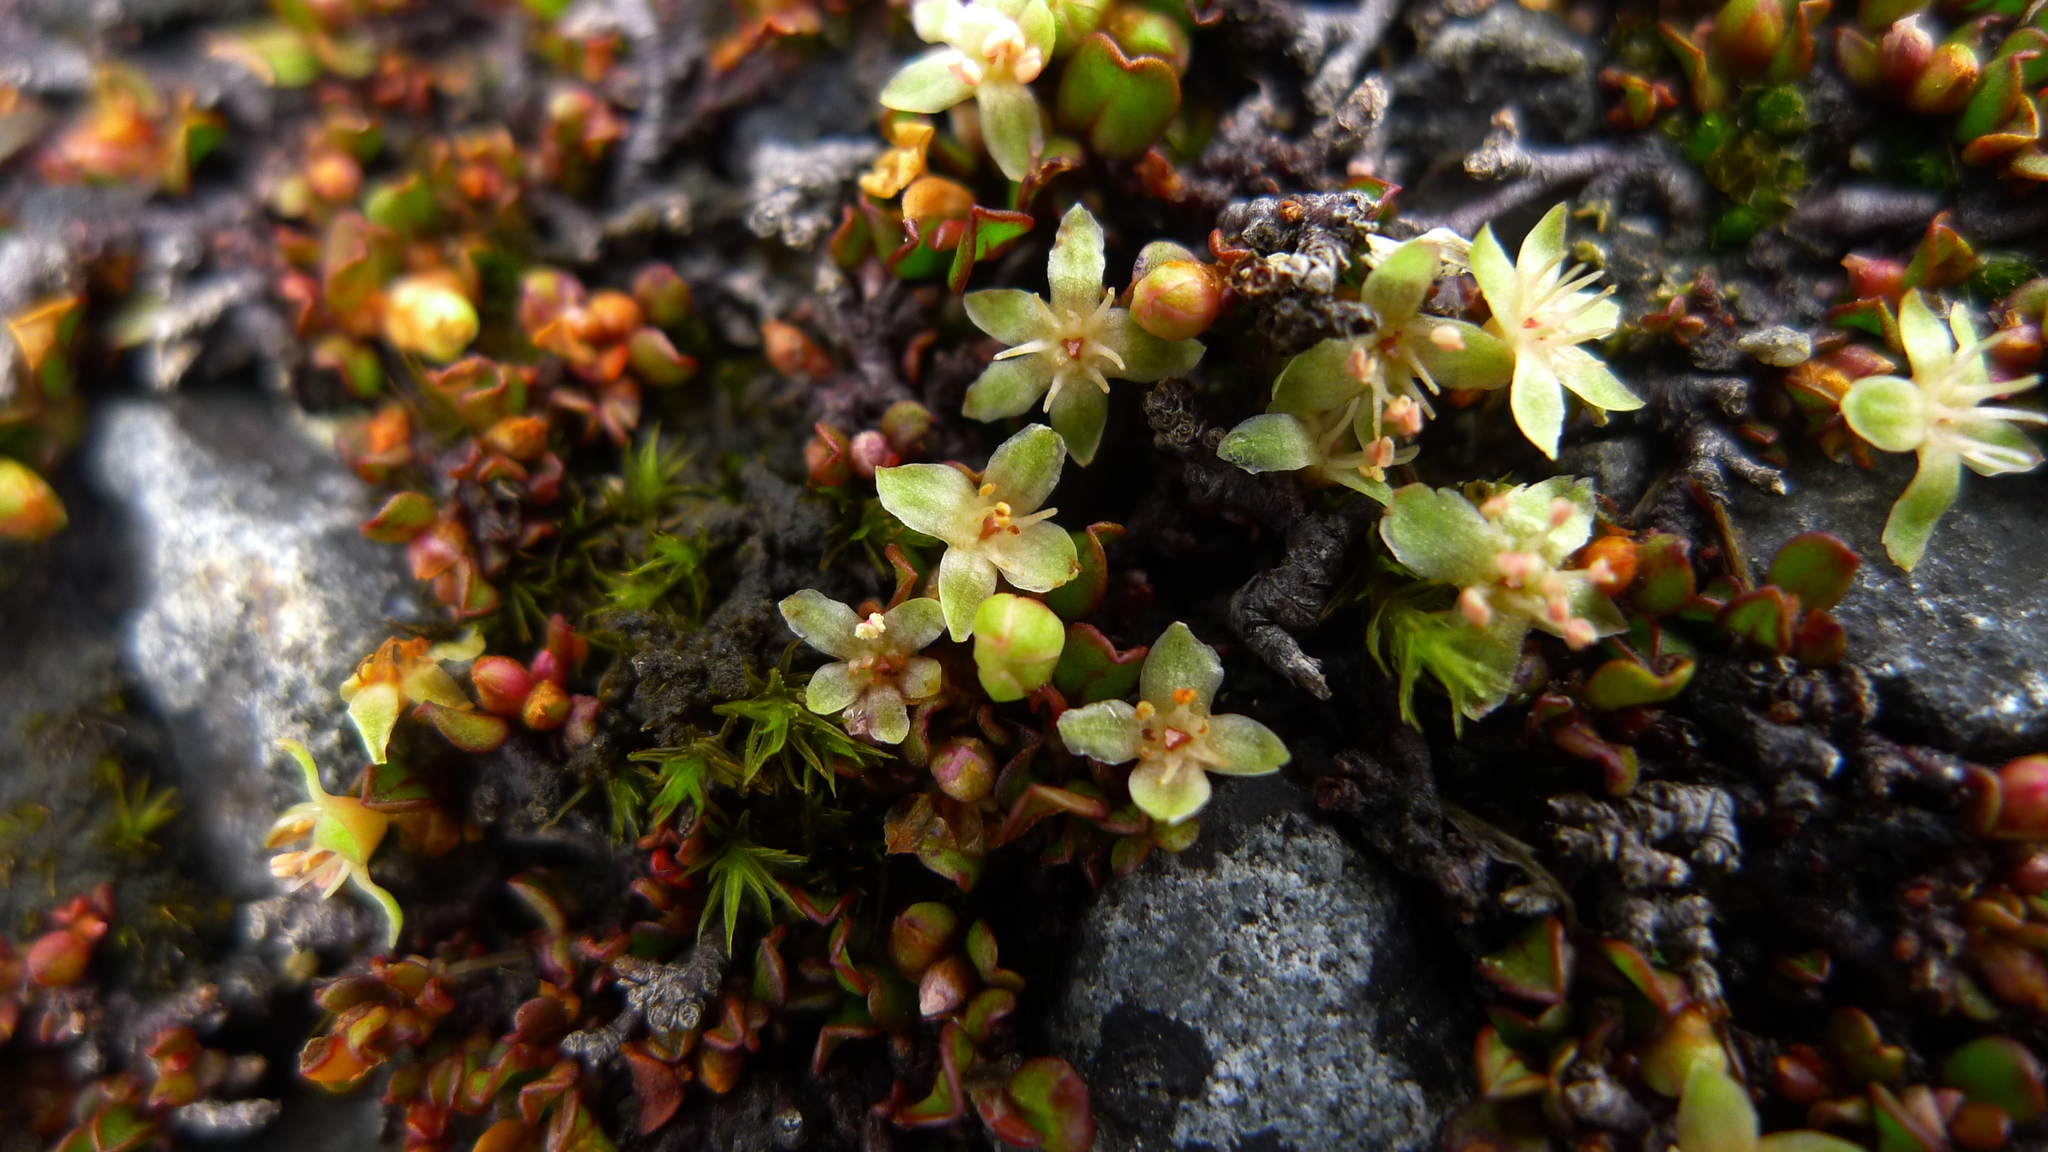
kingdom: Plantae
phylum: Tracheophyta
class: Magnoliopsida
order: Caryophyllales
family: Polygonaceae
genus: Muehlenbeckia
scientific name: Muehlenbeckia axillaris
